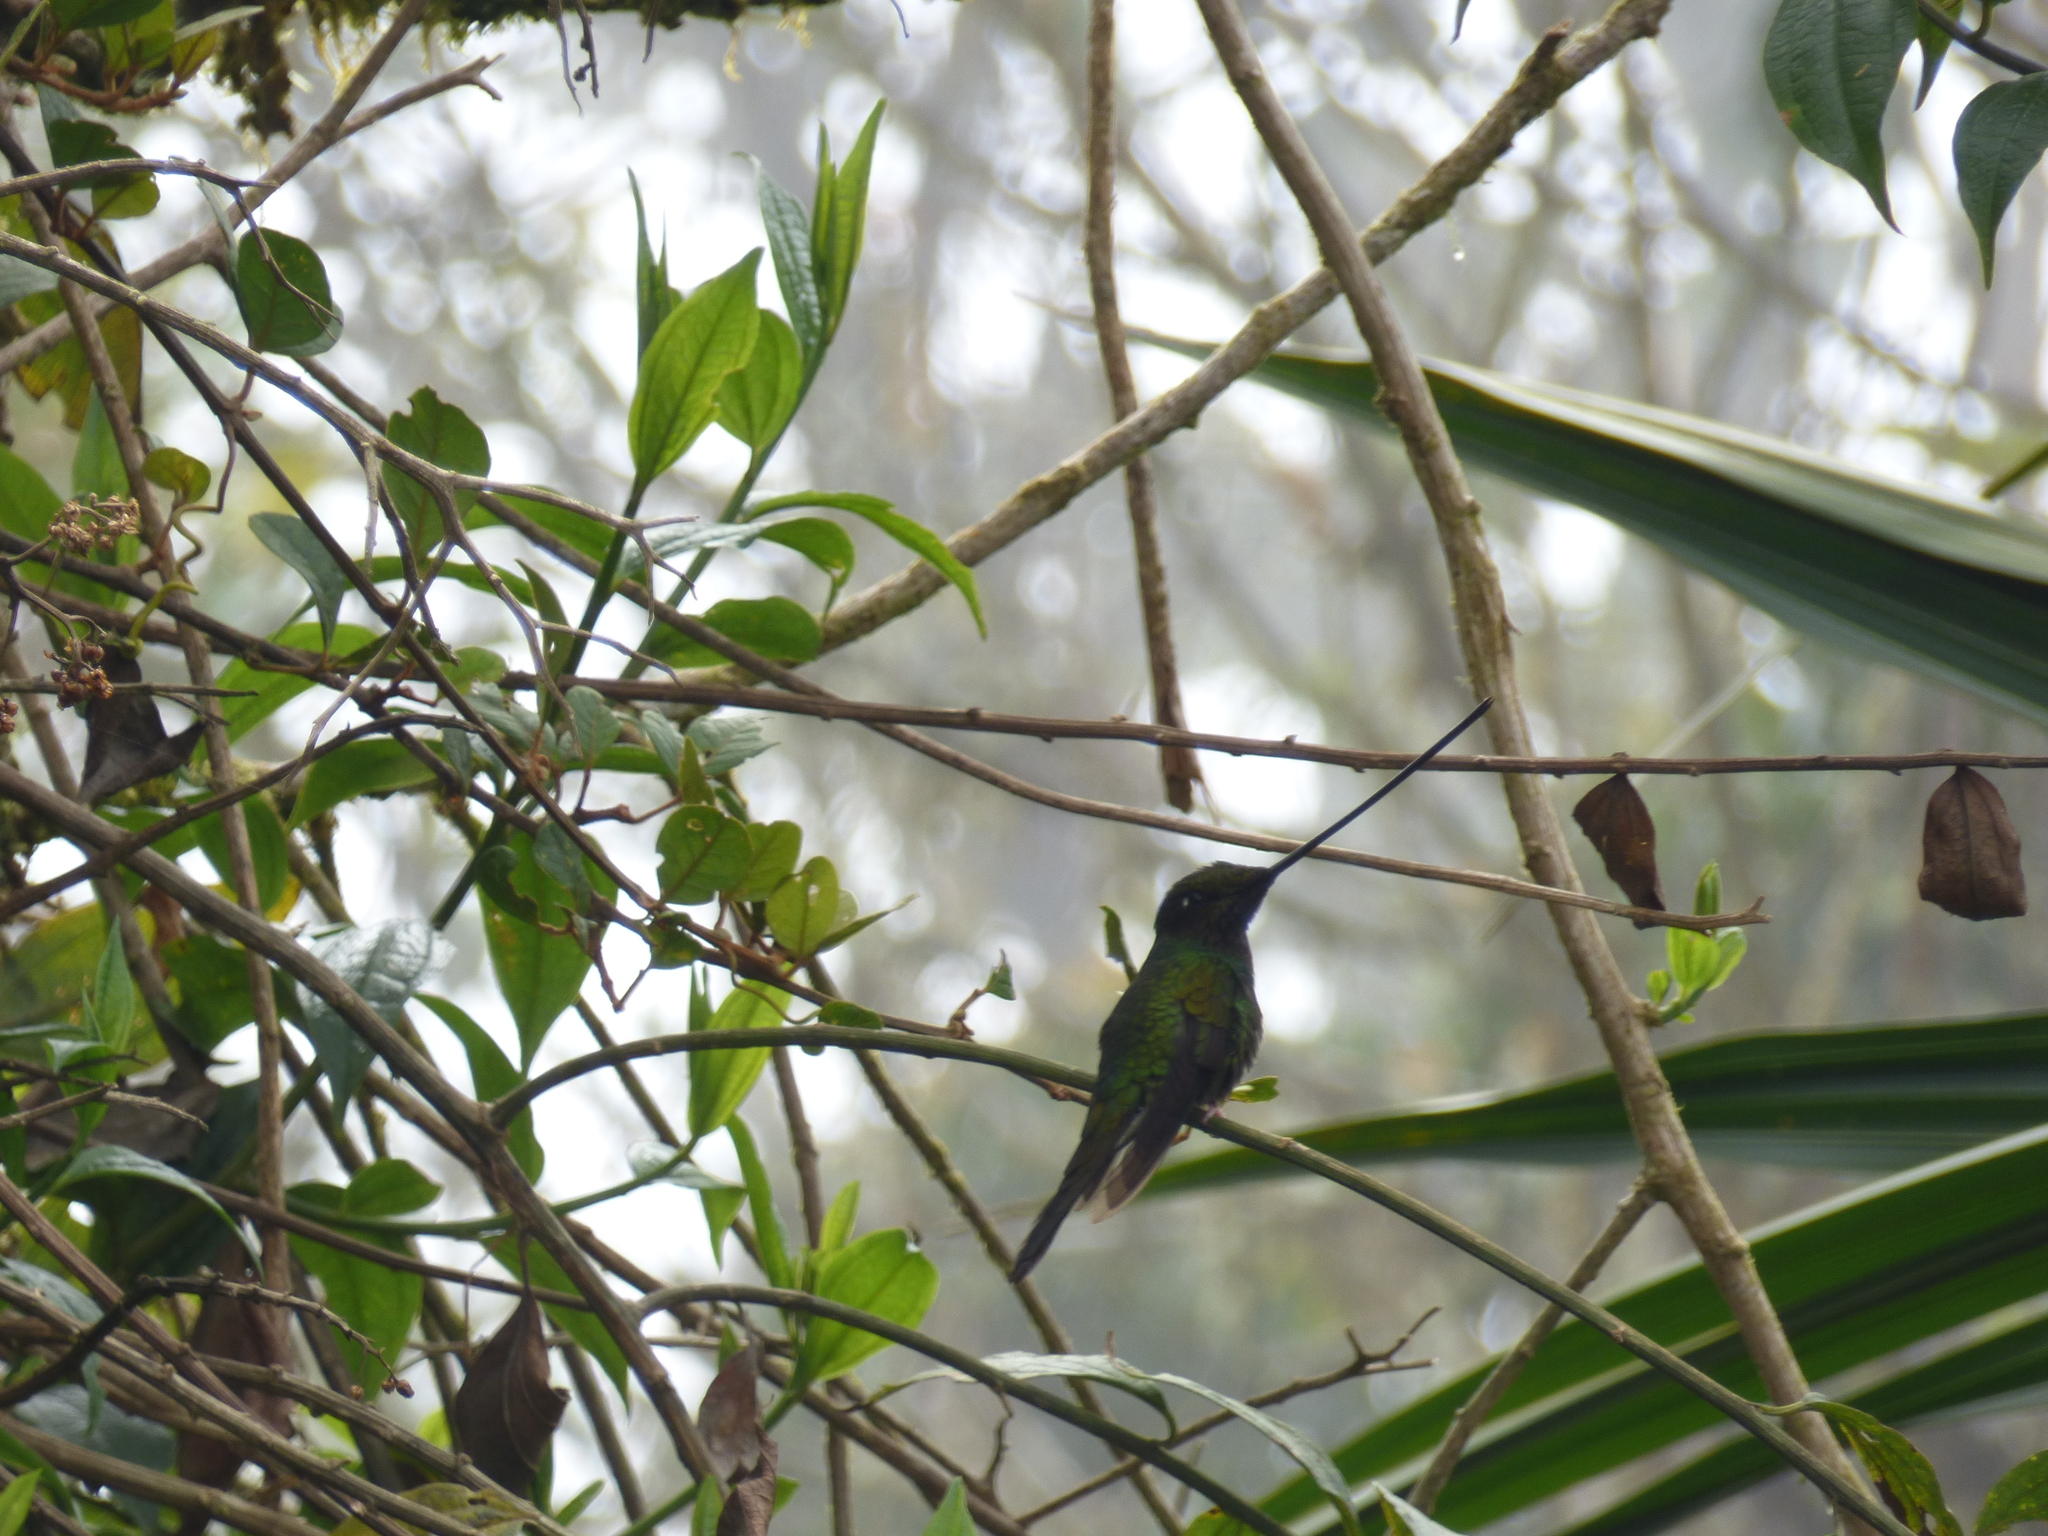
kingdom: Animalia
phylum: Chordata
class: Aves
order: Apodiformes
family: Trochilidae
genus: Ensifera
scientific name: Ensifera ensifera
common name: Sword-billed hummingbird
